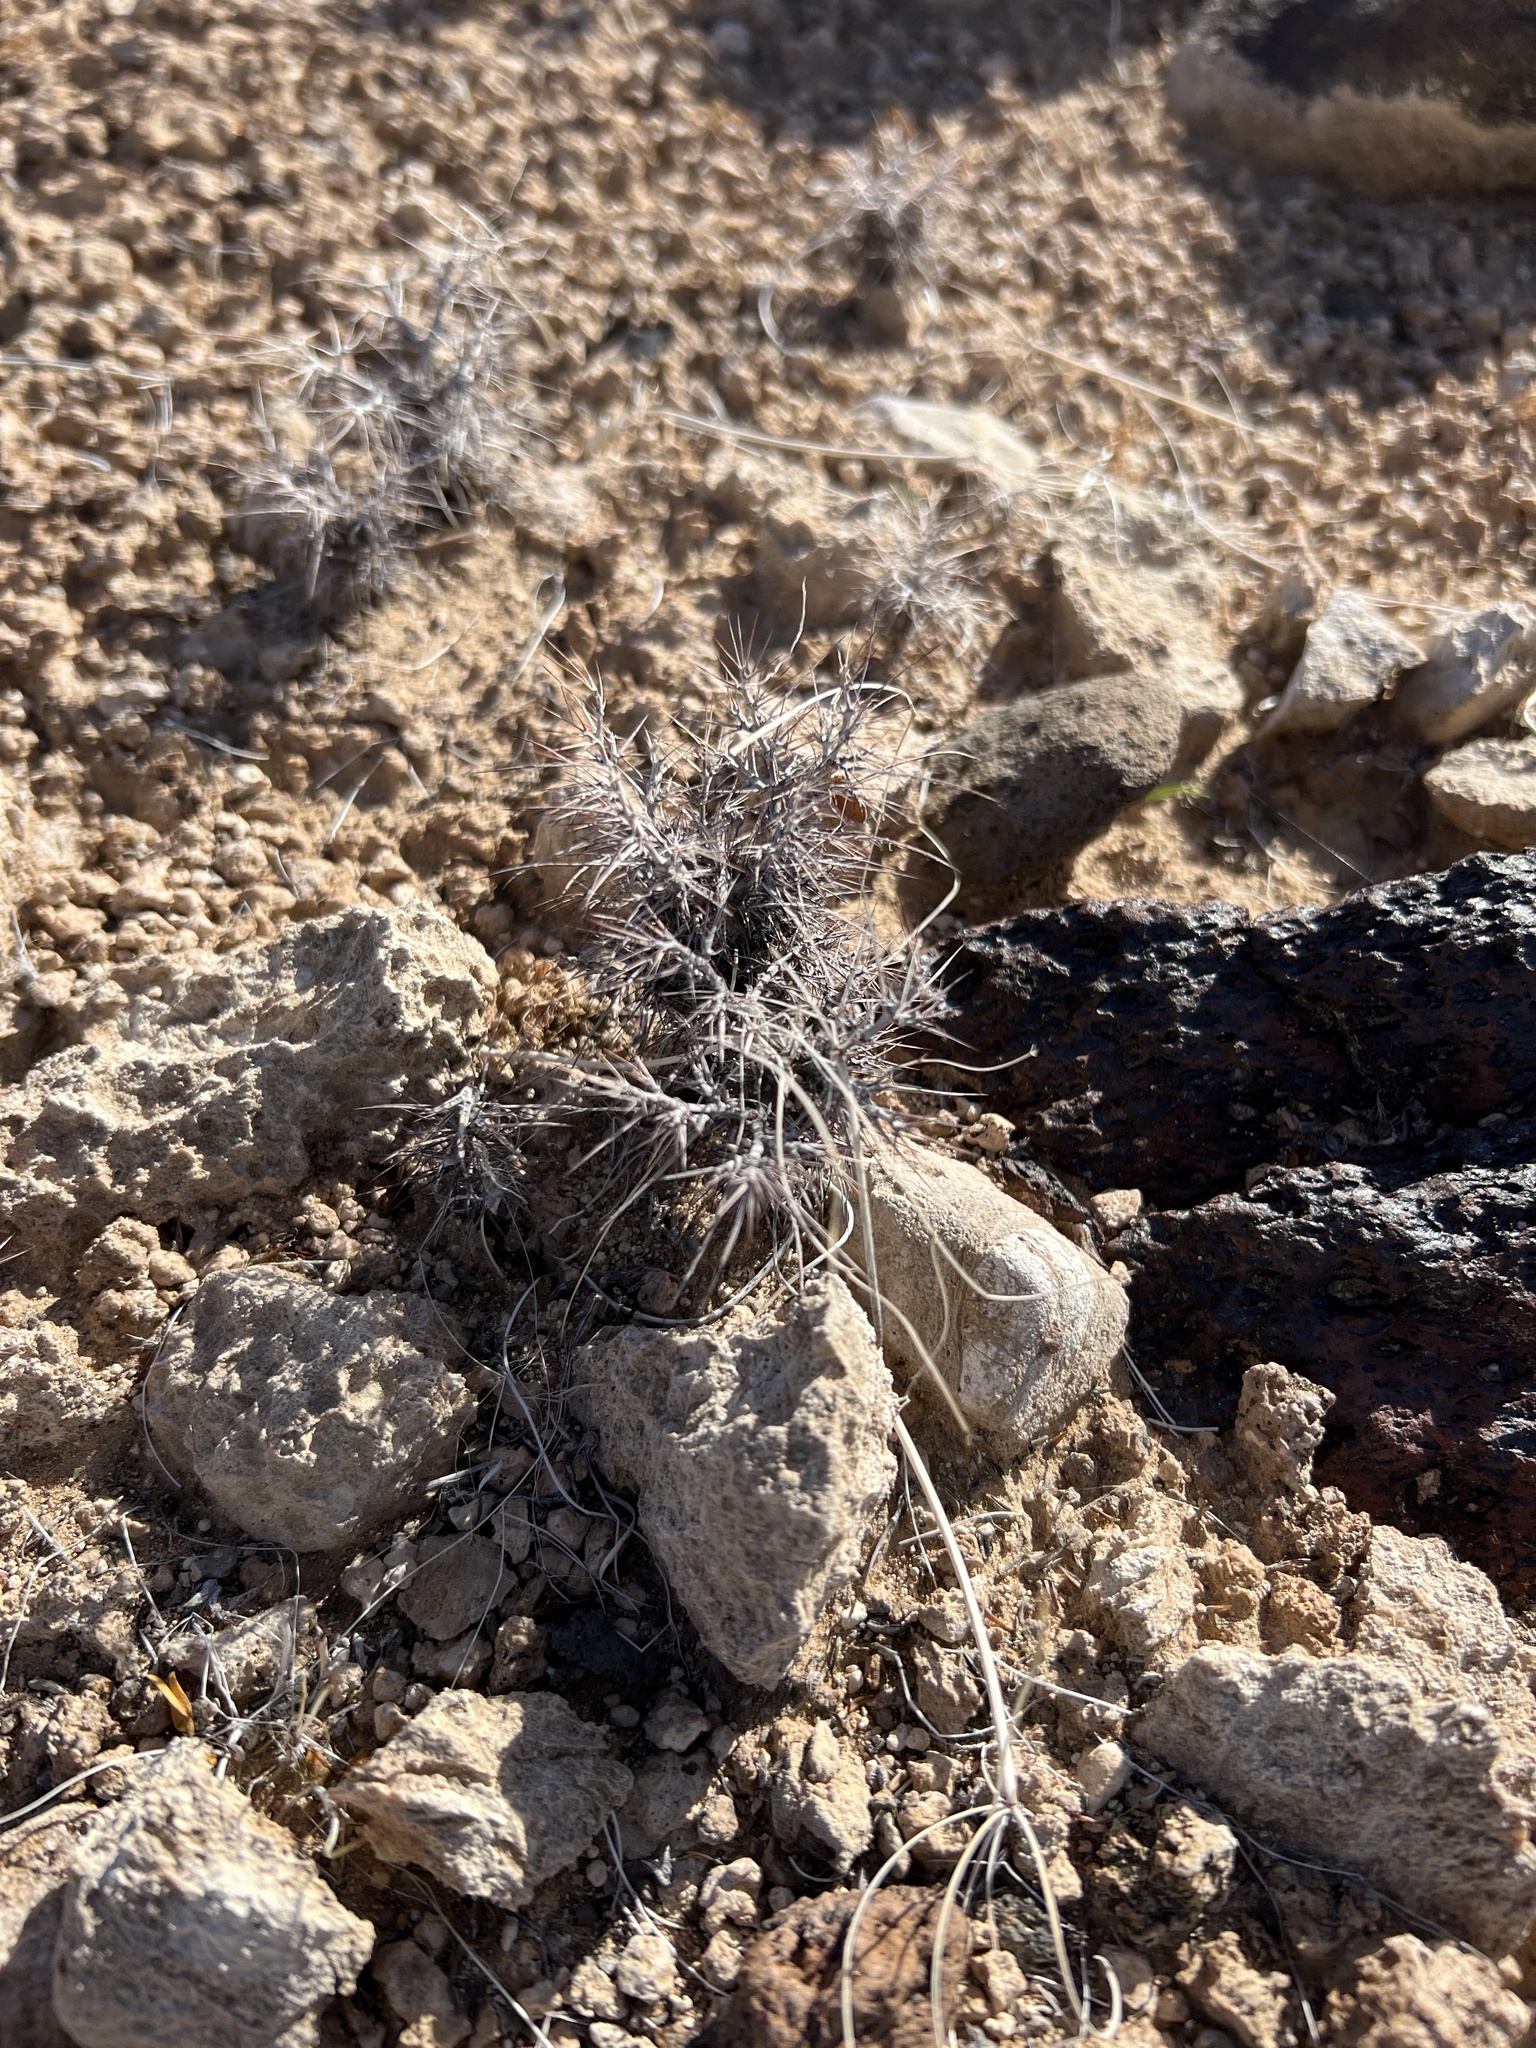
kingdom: Plantae
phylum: Tracheophyta
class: Magnoliopsida
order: Caryophyllales
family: Polygonaceae
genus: Chorizanthe
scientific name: Chorizanthe rigida
